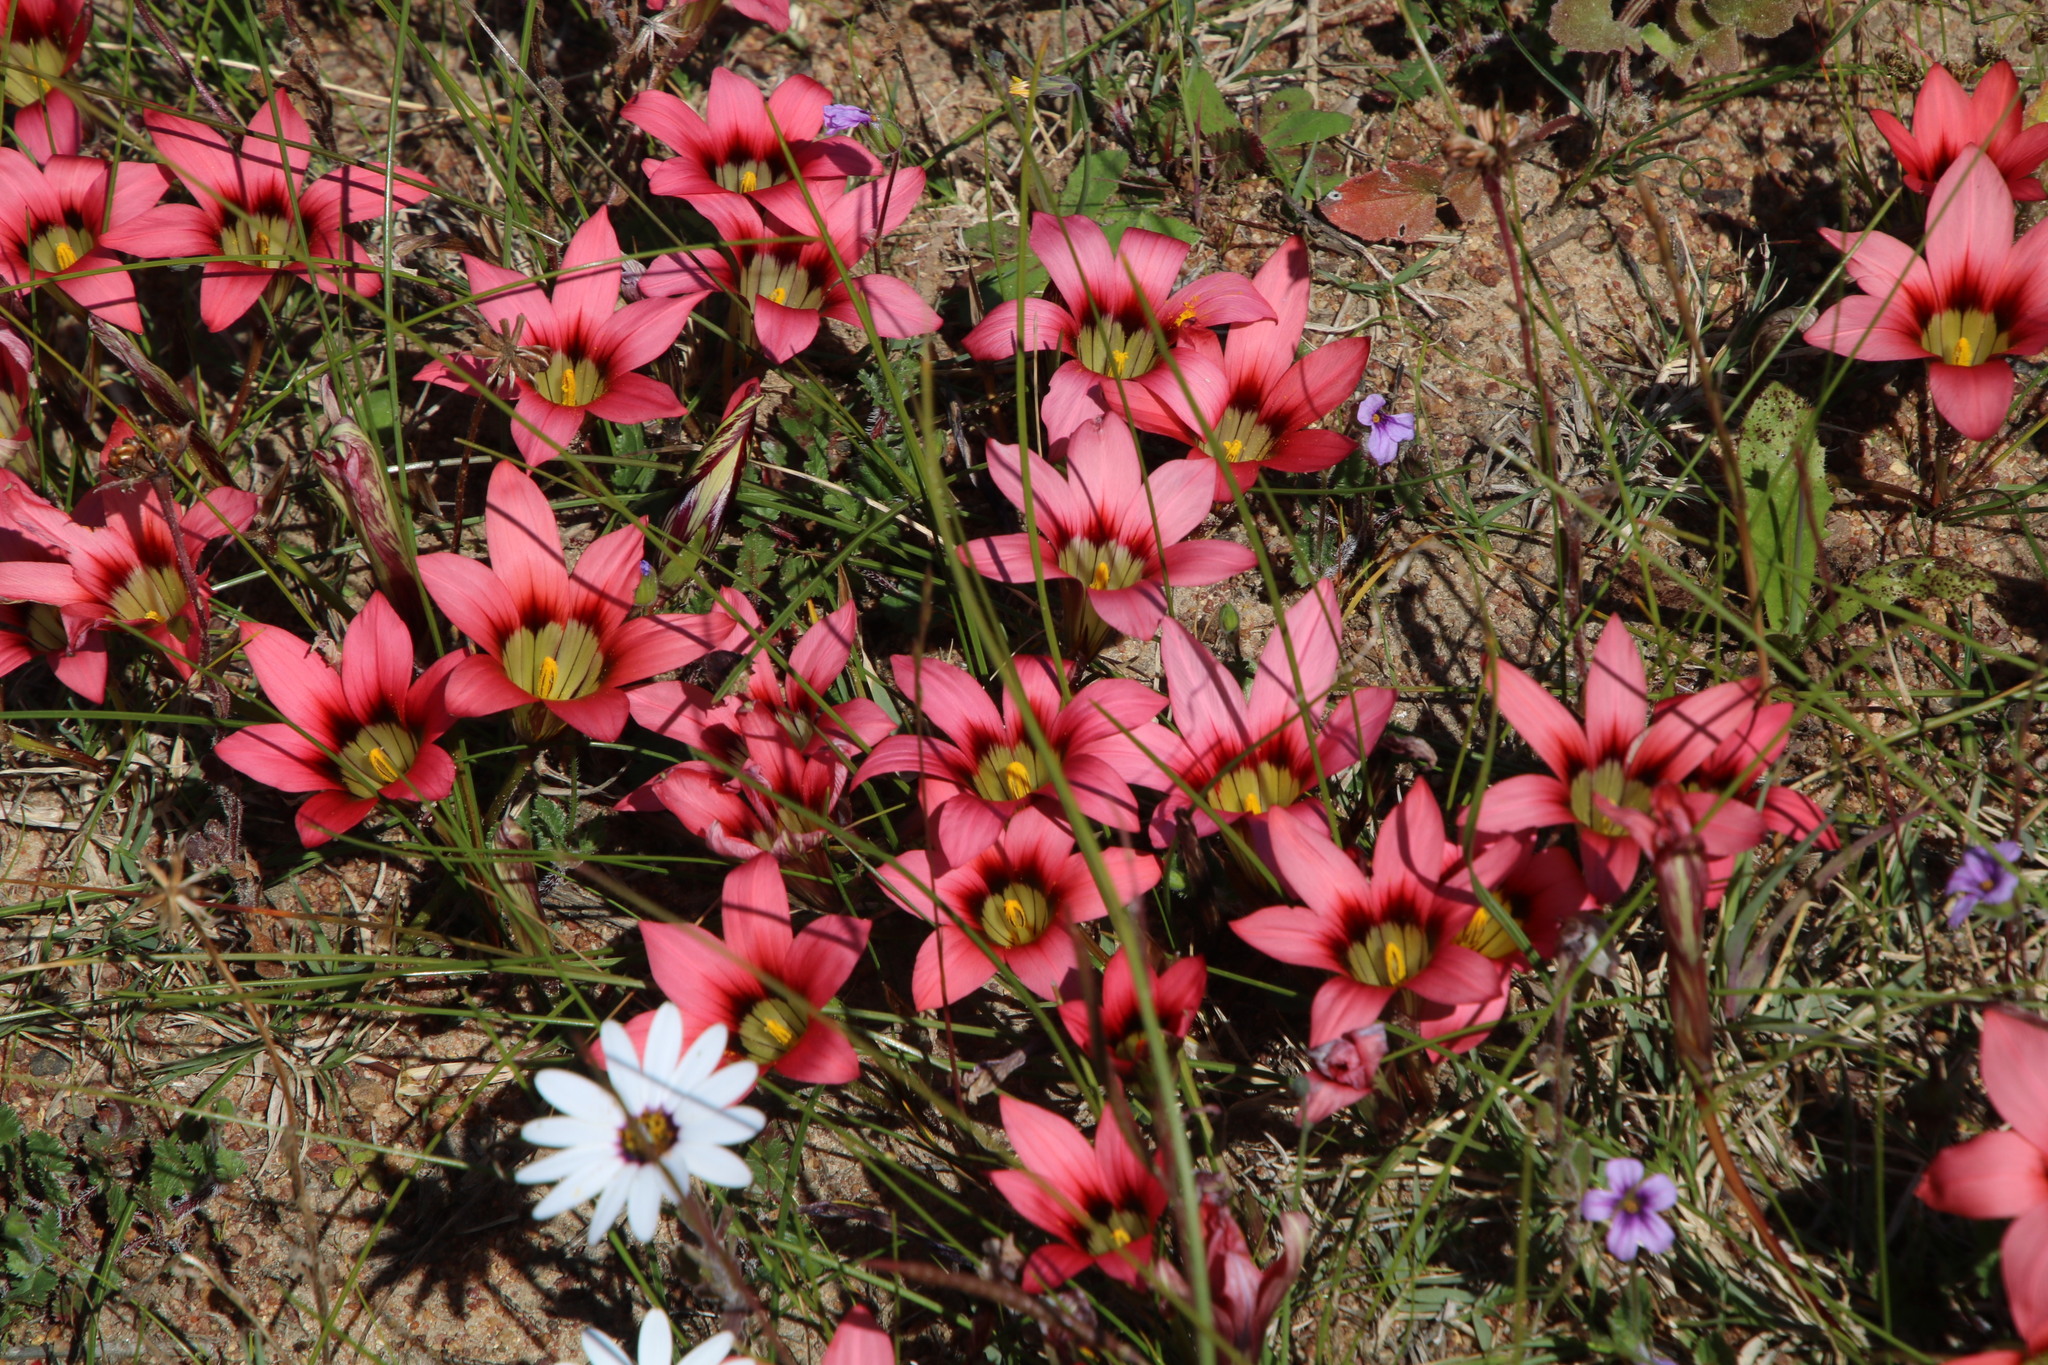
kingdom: Plantae
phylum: Tracheophyta
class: Liliopsida
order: Asparagales
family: Iridaceae
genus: Romulea
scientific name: Romulea hirsuta
